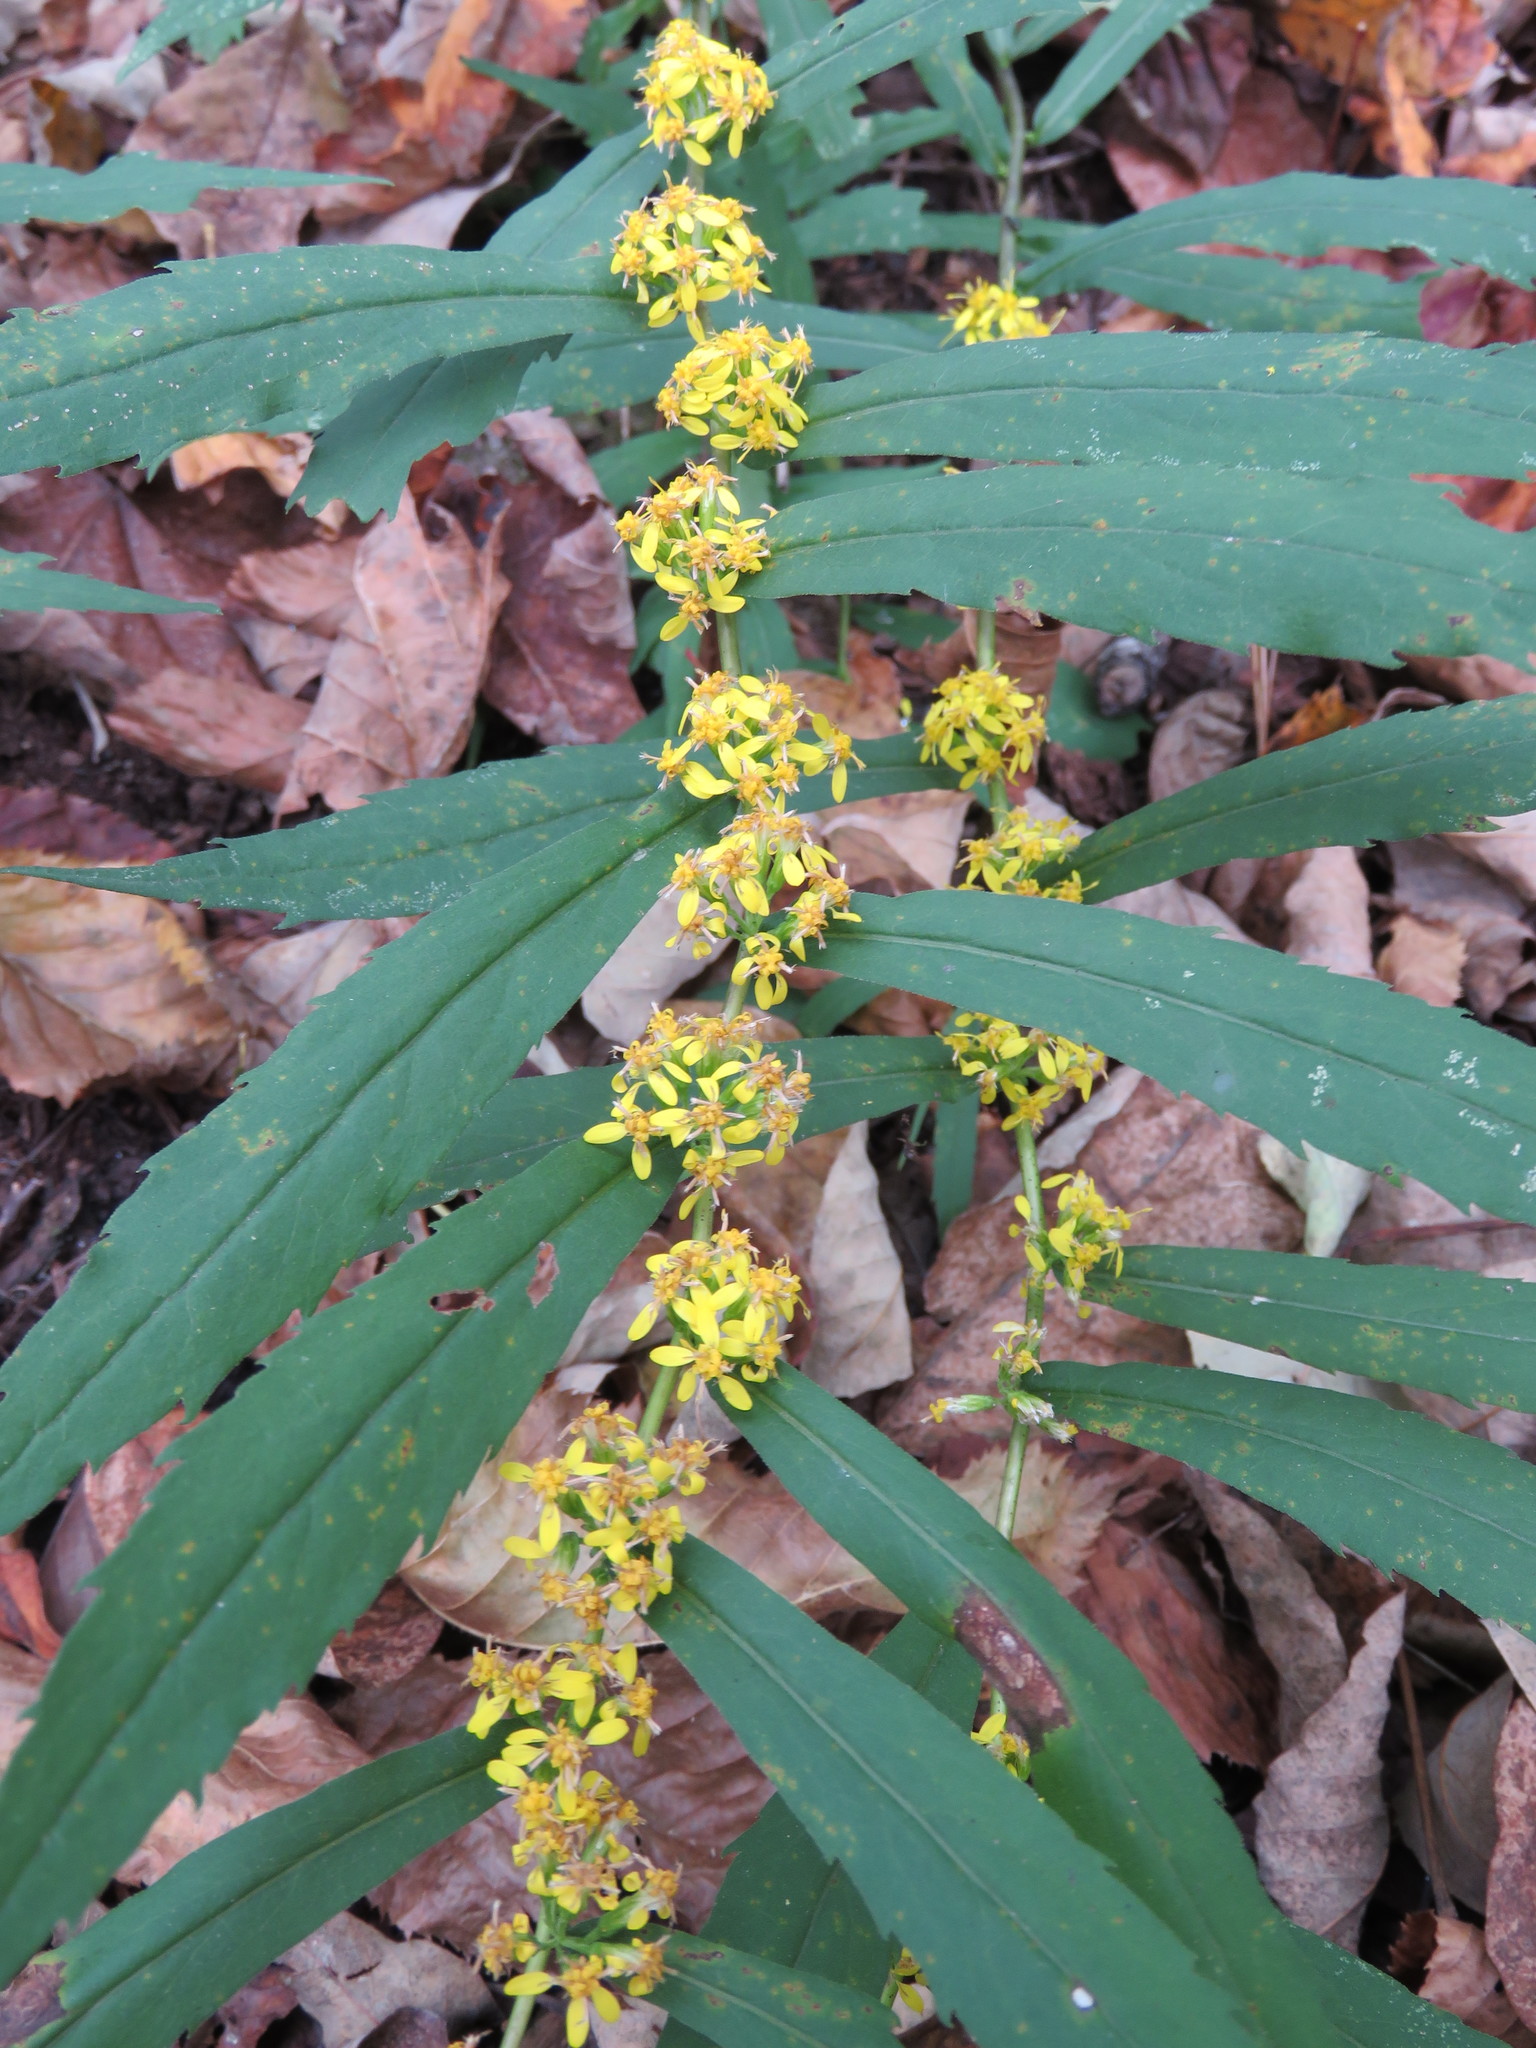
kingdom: Plantae
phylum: Tracheophyta
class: Magnoliopsida
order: Asterales
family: Asteraceae
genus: Solidago
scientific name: Solidago caesia
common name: Woodland goldenrod
